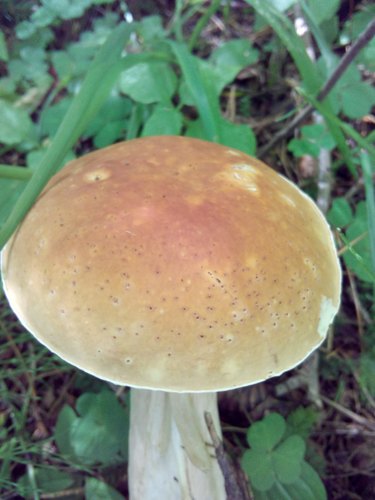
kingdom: Fungi
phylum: Basidiomycota
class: Agaricomycetes
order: Boletales
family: Boletaceae
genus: Boletus
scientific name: Boletus edulis
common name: Cep
